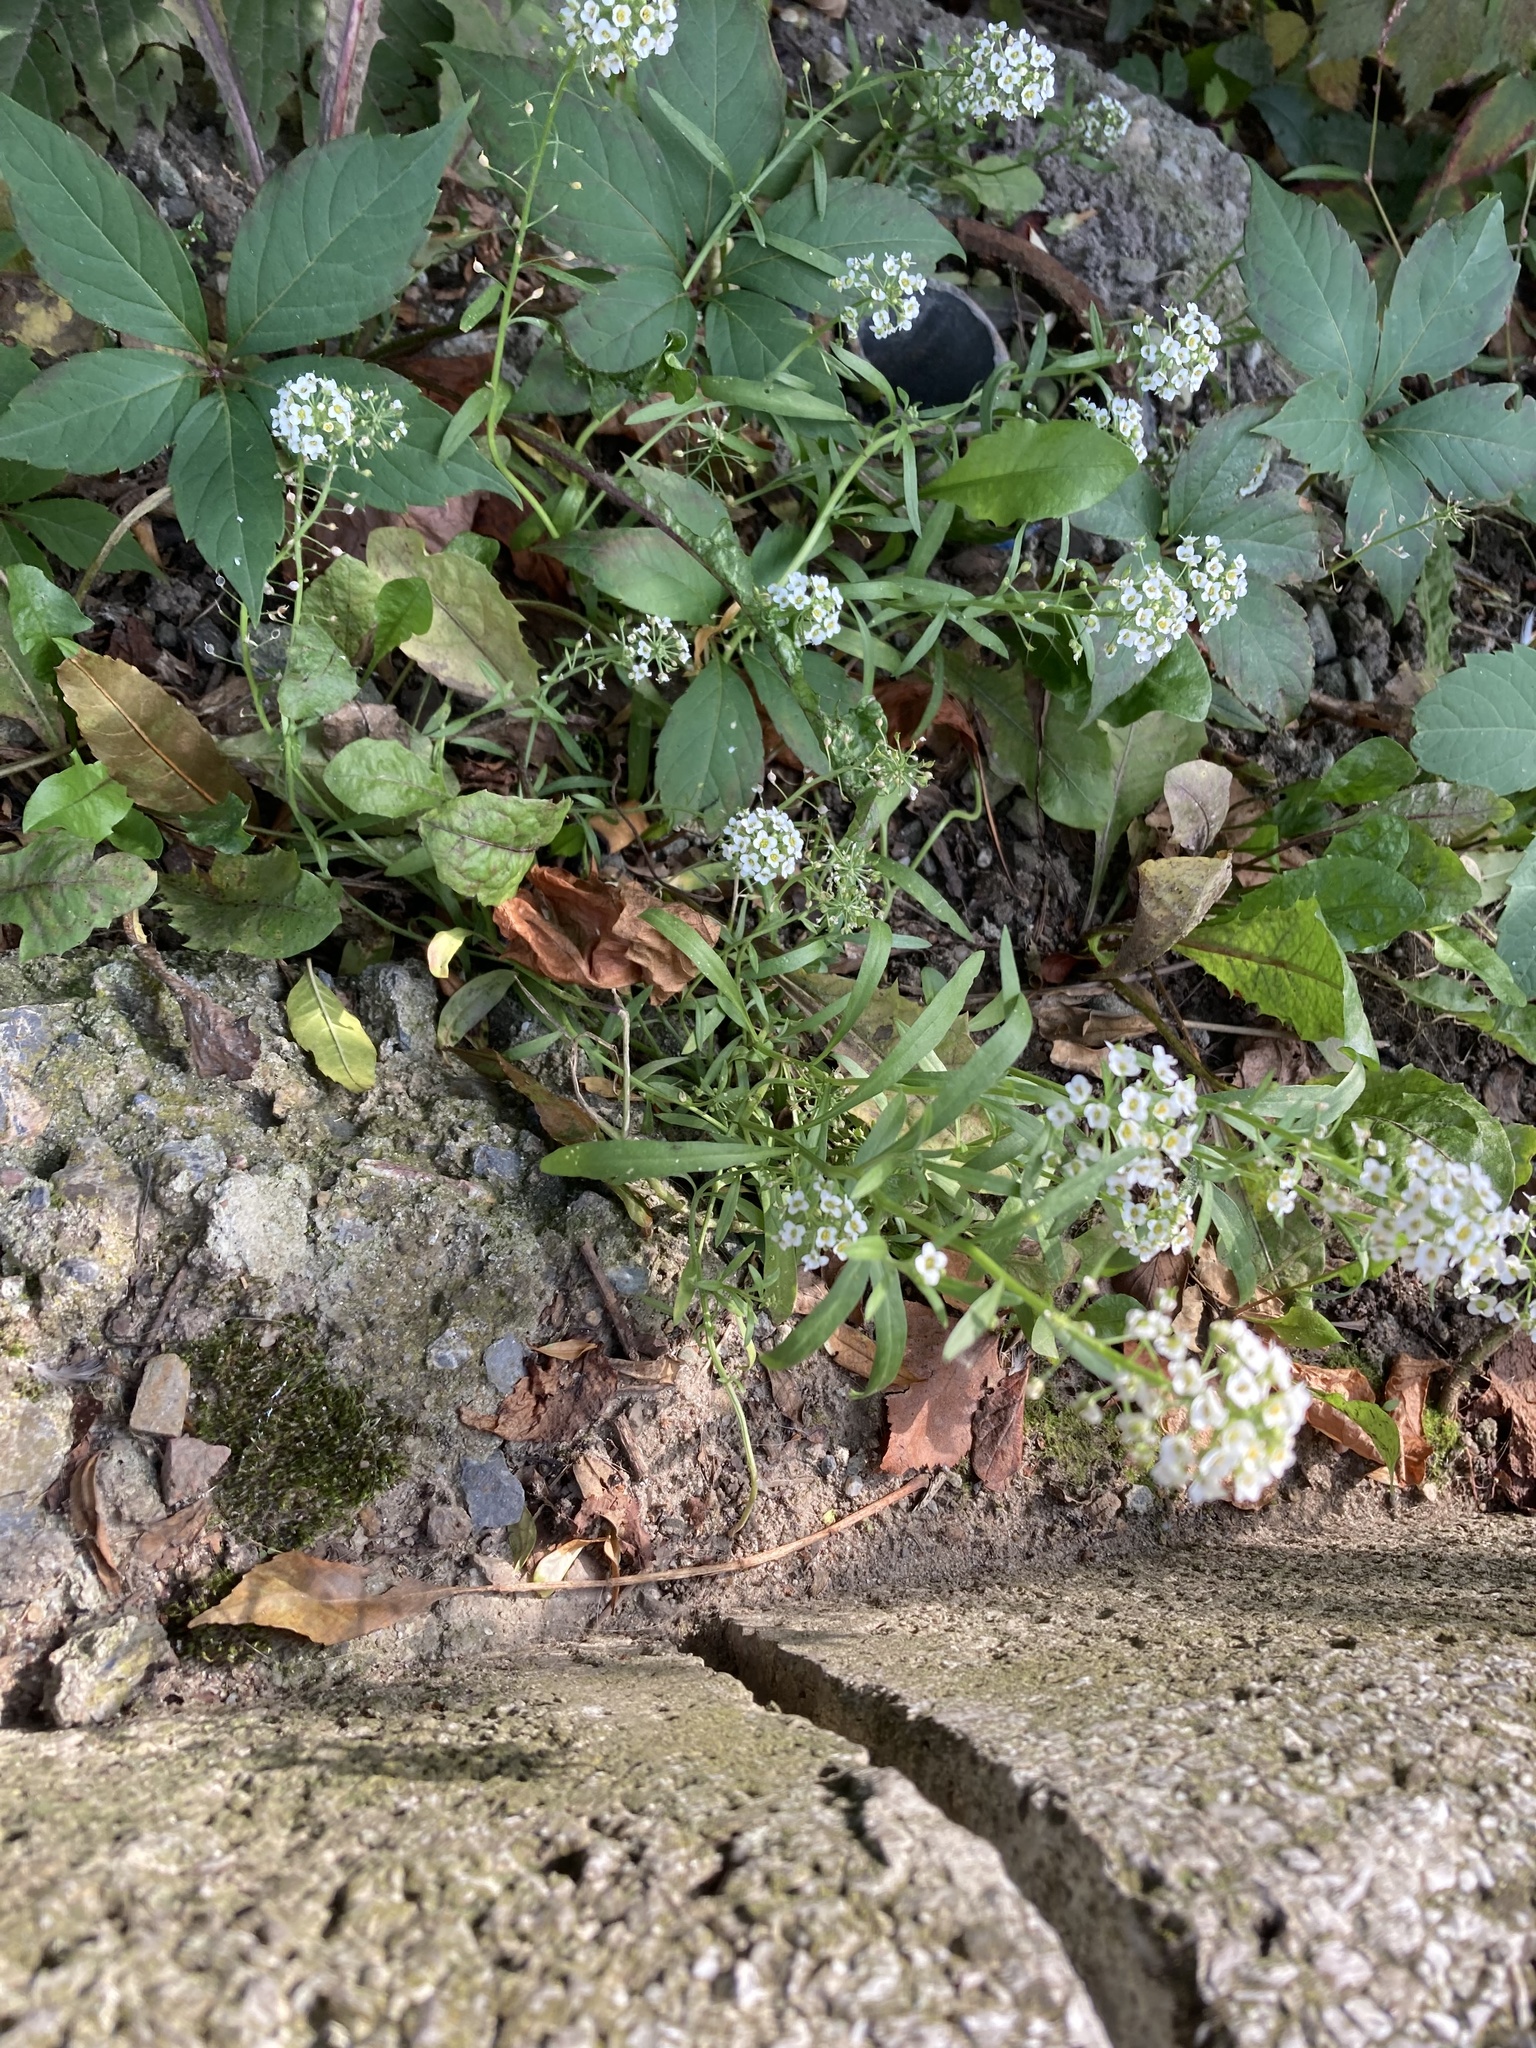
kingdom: Plantae
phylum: Tracheophyta
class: Magnoliopsida
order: Brassicales
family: Brassicaceae
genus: Lobularia
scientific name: Lobularia maritima
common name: Sweet alison
